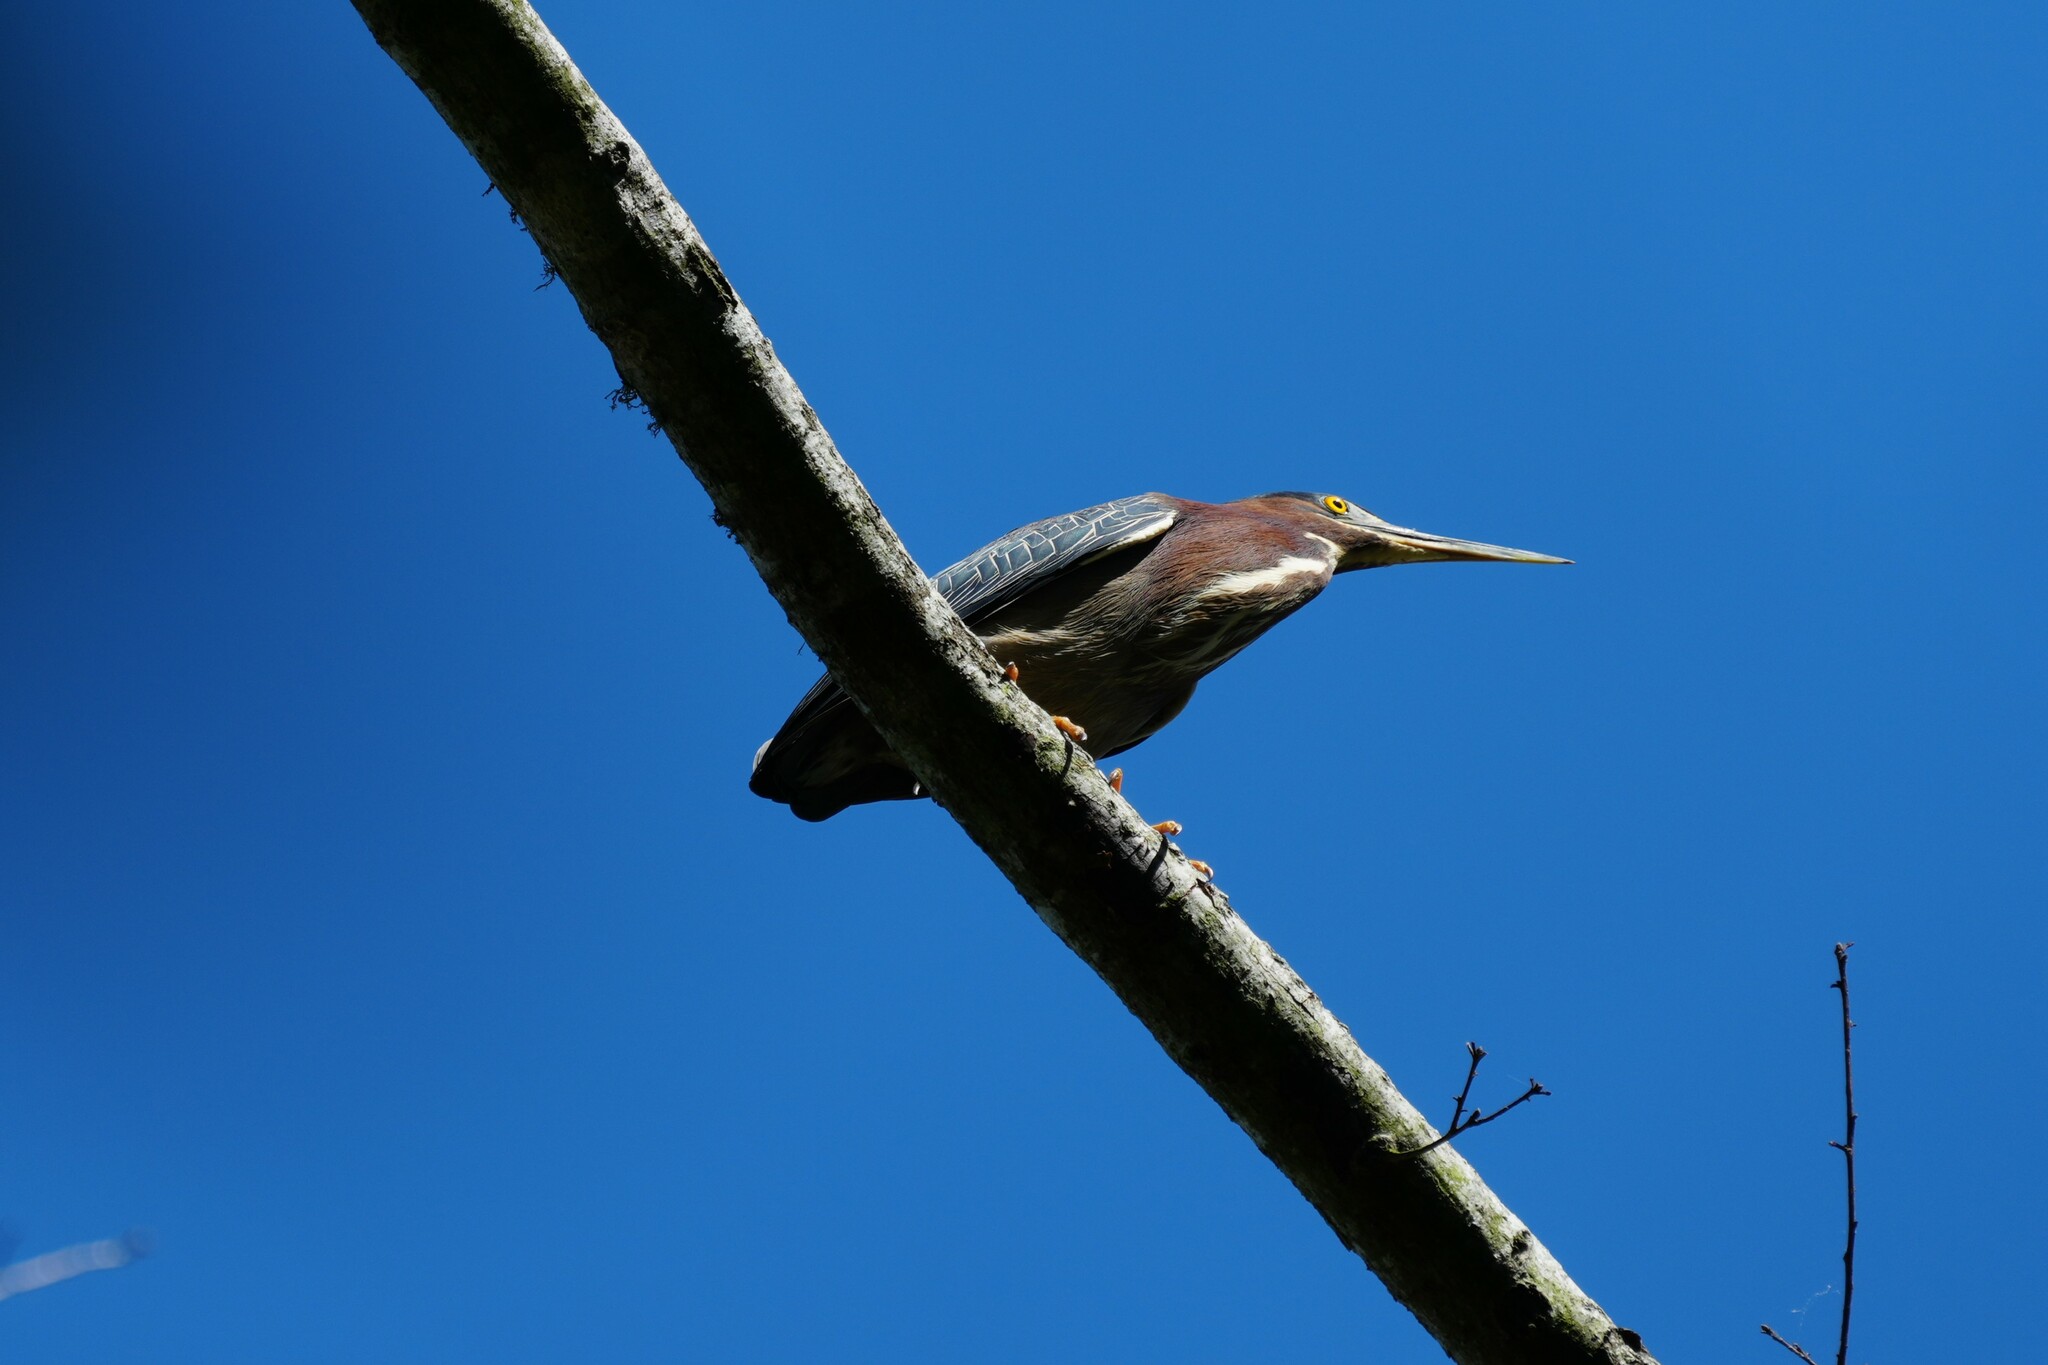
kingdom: Animalia
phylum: Chordata
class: Aves
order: Pelecaniformes
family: Ardeidae
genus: Butorides
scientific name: Butorides virescens
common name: Green heron
